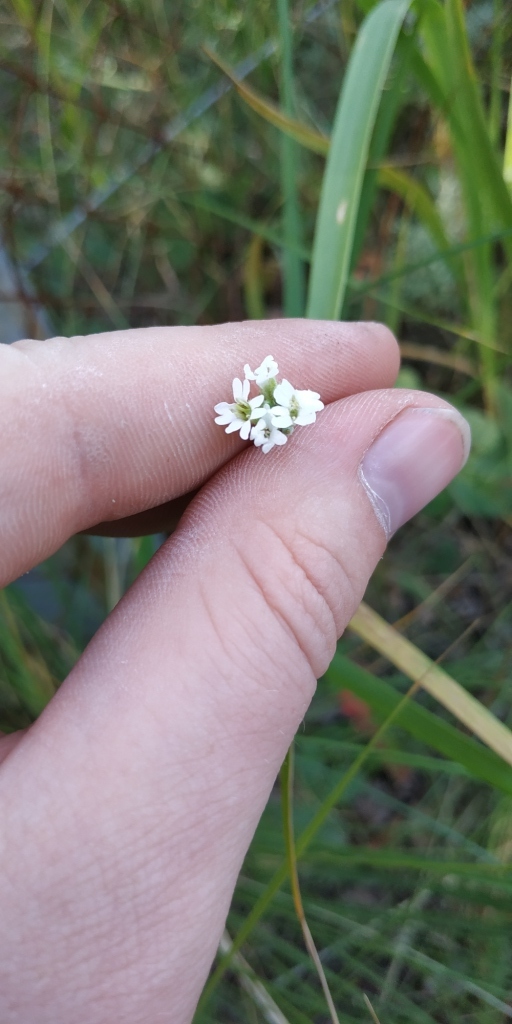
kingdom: Plantae
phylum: Tracheophyta
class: Magnoliopsida
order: Brassicales
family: Brassicaceae
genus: Berteroa
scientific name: Berteroa incana
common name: Hoary alison
